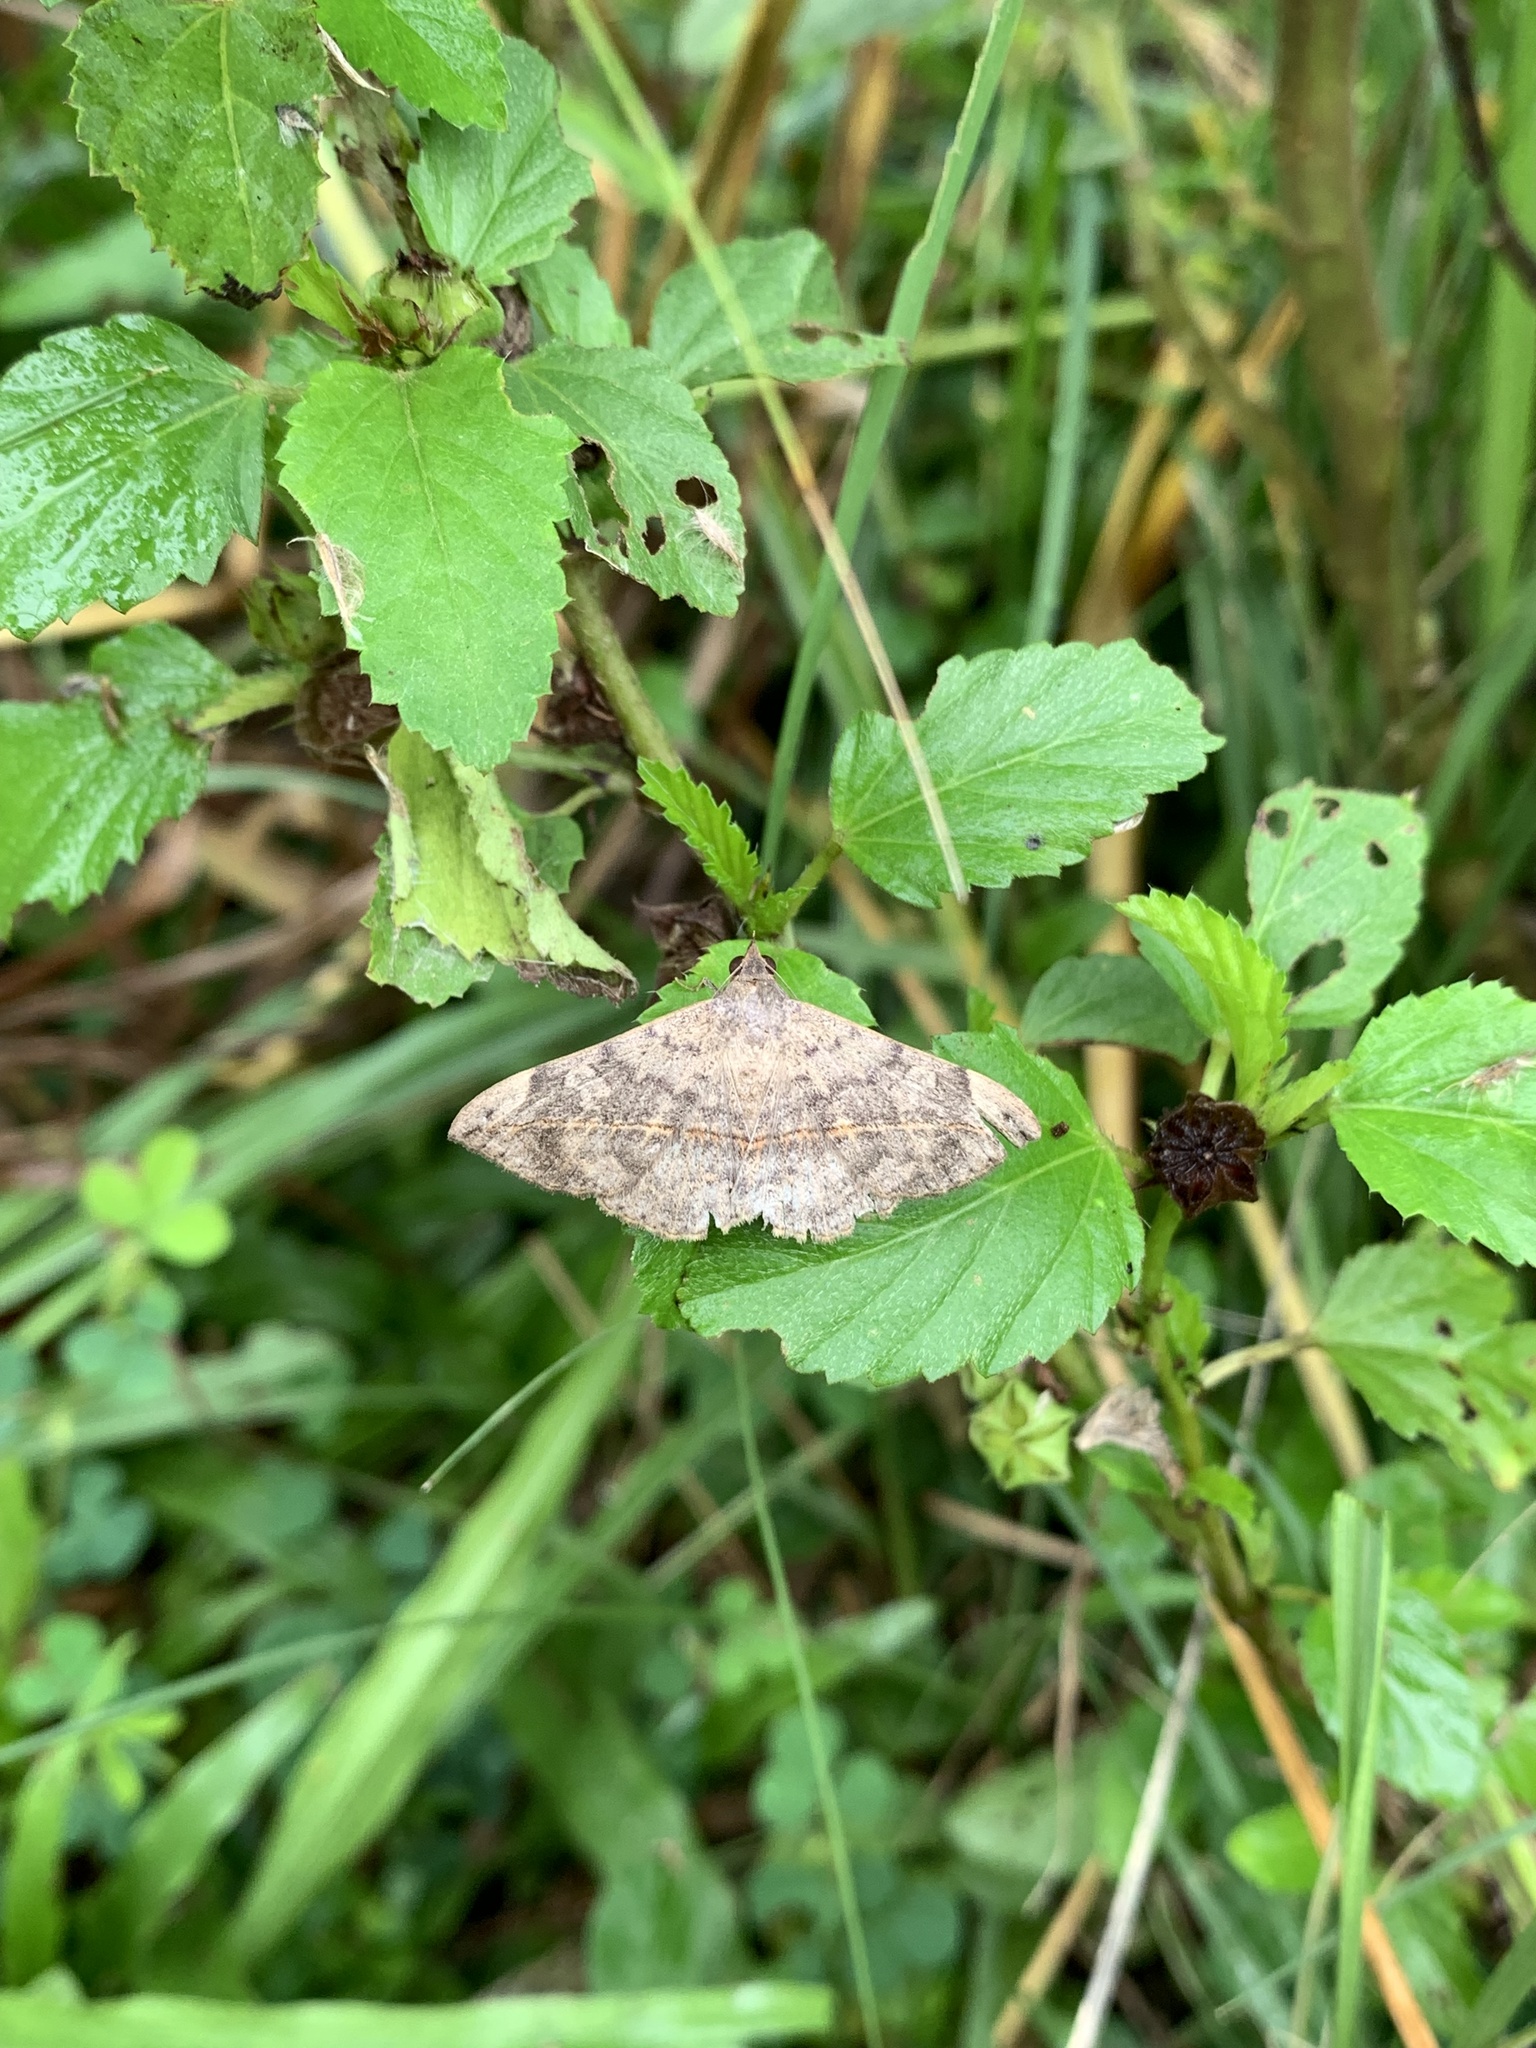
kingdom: Animalia
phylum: Arthropoda
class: Insecta
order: Lepidoptera
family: Erebidae
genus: Anticarsia
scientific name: Anticarsia gemmatalis
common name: Cutworm moth
